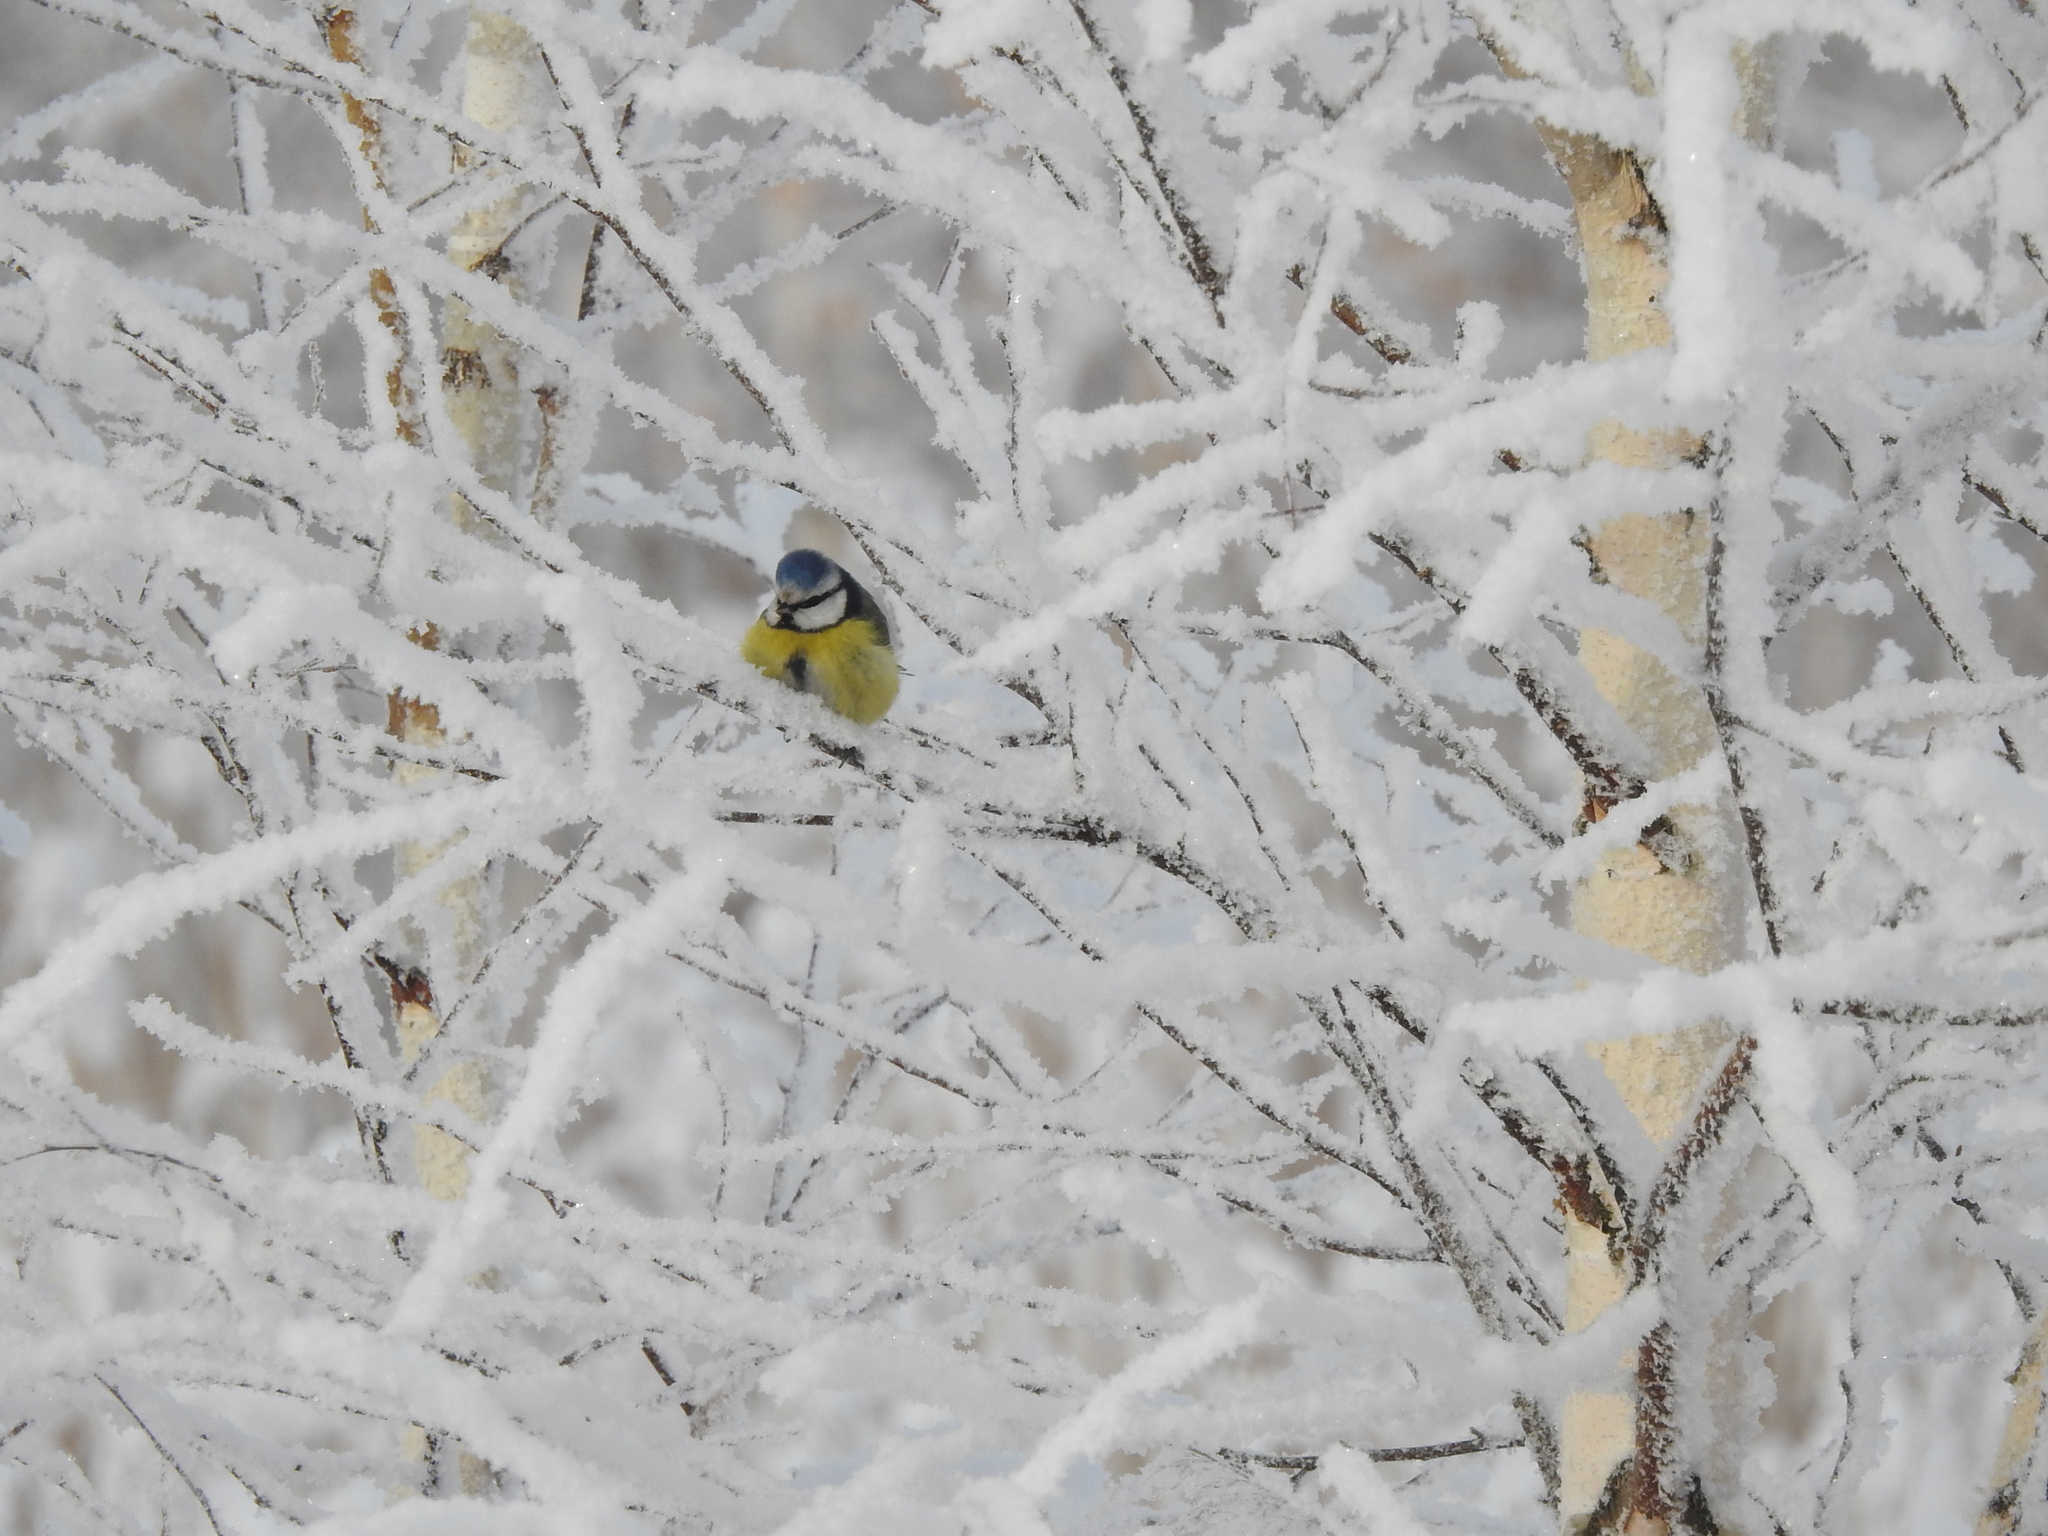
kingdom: Animalia
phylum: Chordata
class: Aves
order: Passeriformes
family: Paridae
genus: Cyanistes
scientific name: Cyanistes caeruleus
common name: Eurasian blue tit
